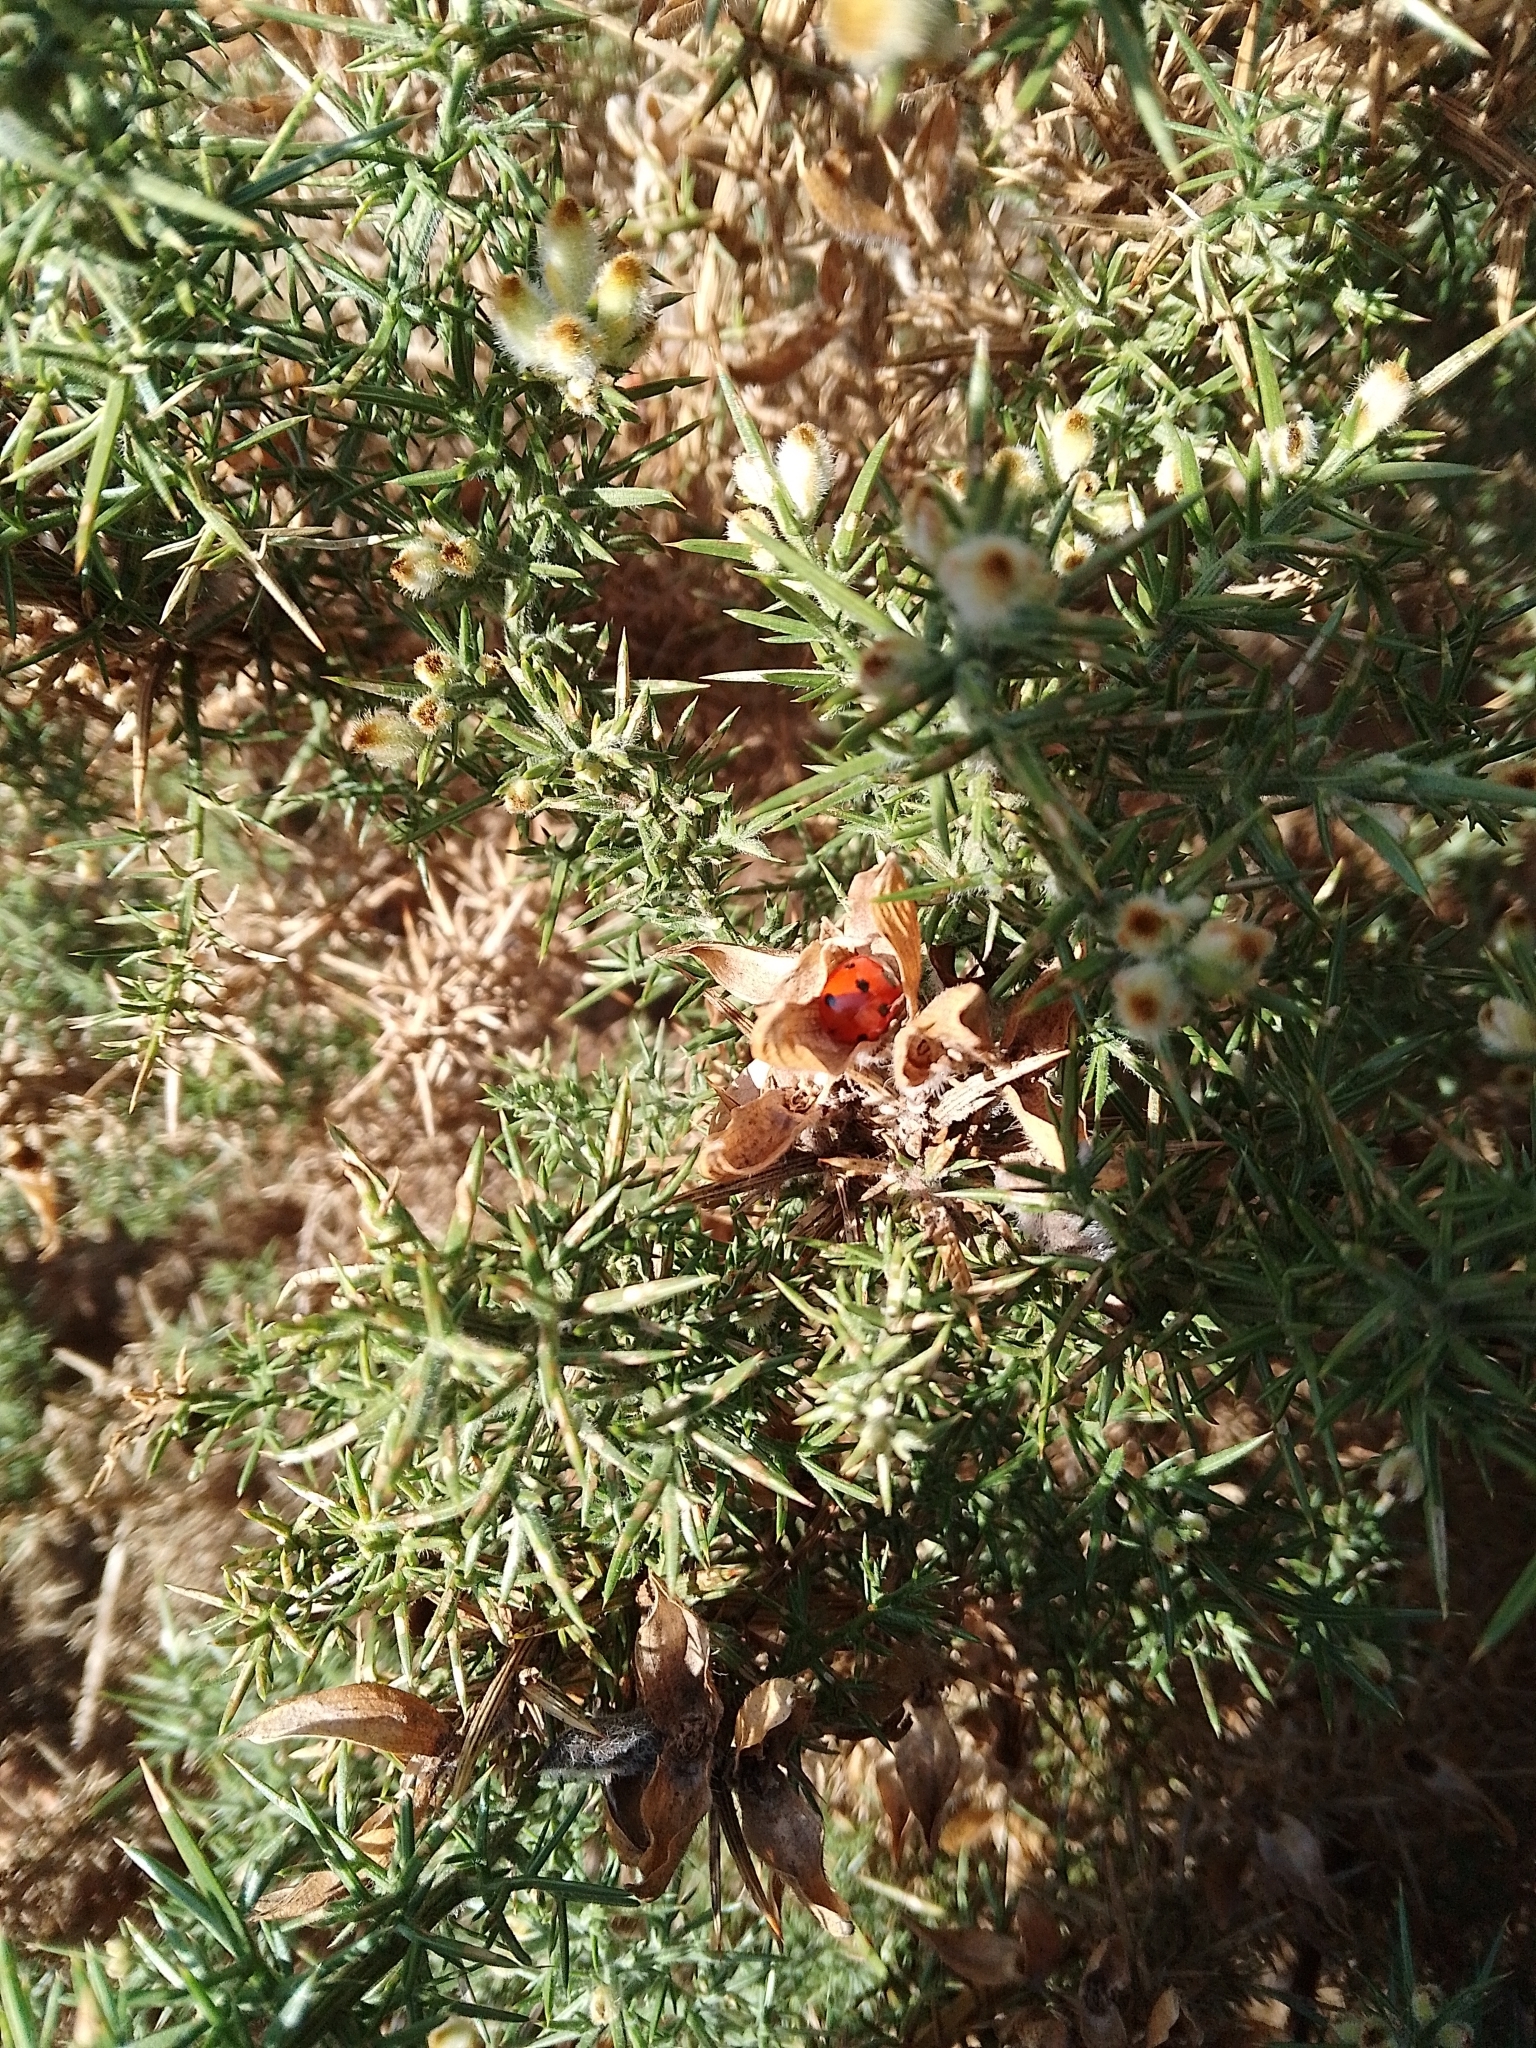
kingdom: Animalia
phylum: Arthropoda
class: Insecta
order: Coleoptera
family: Coccinellidae
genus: Coccinella
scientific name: Coccinella septempunctata
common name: Sevenspotted lady beetle
